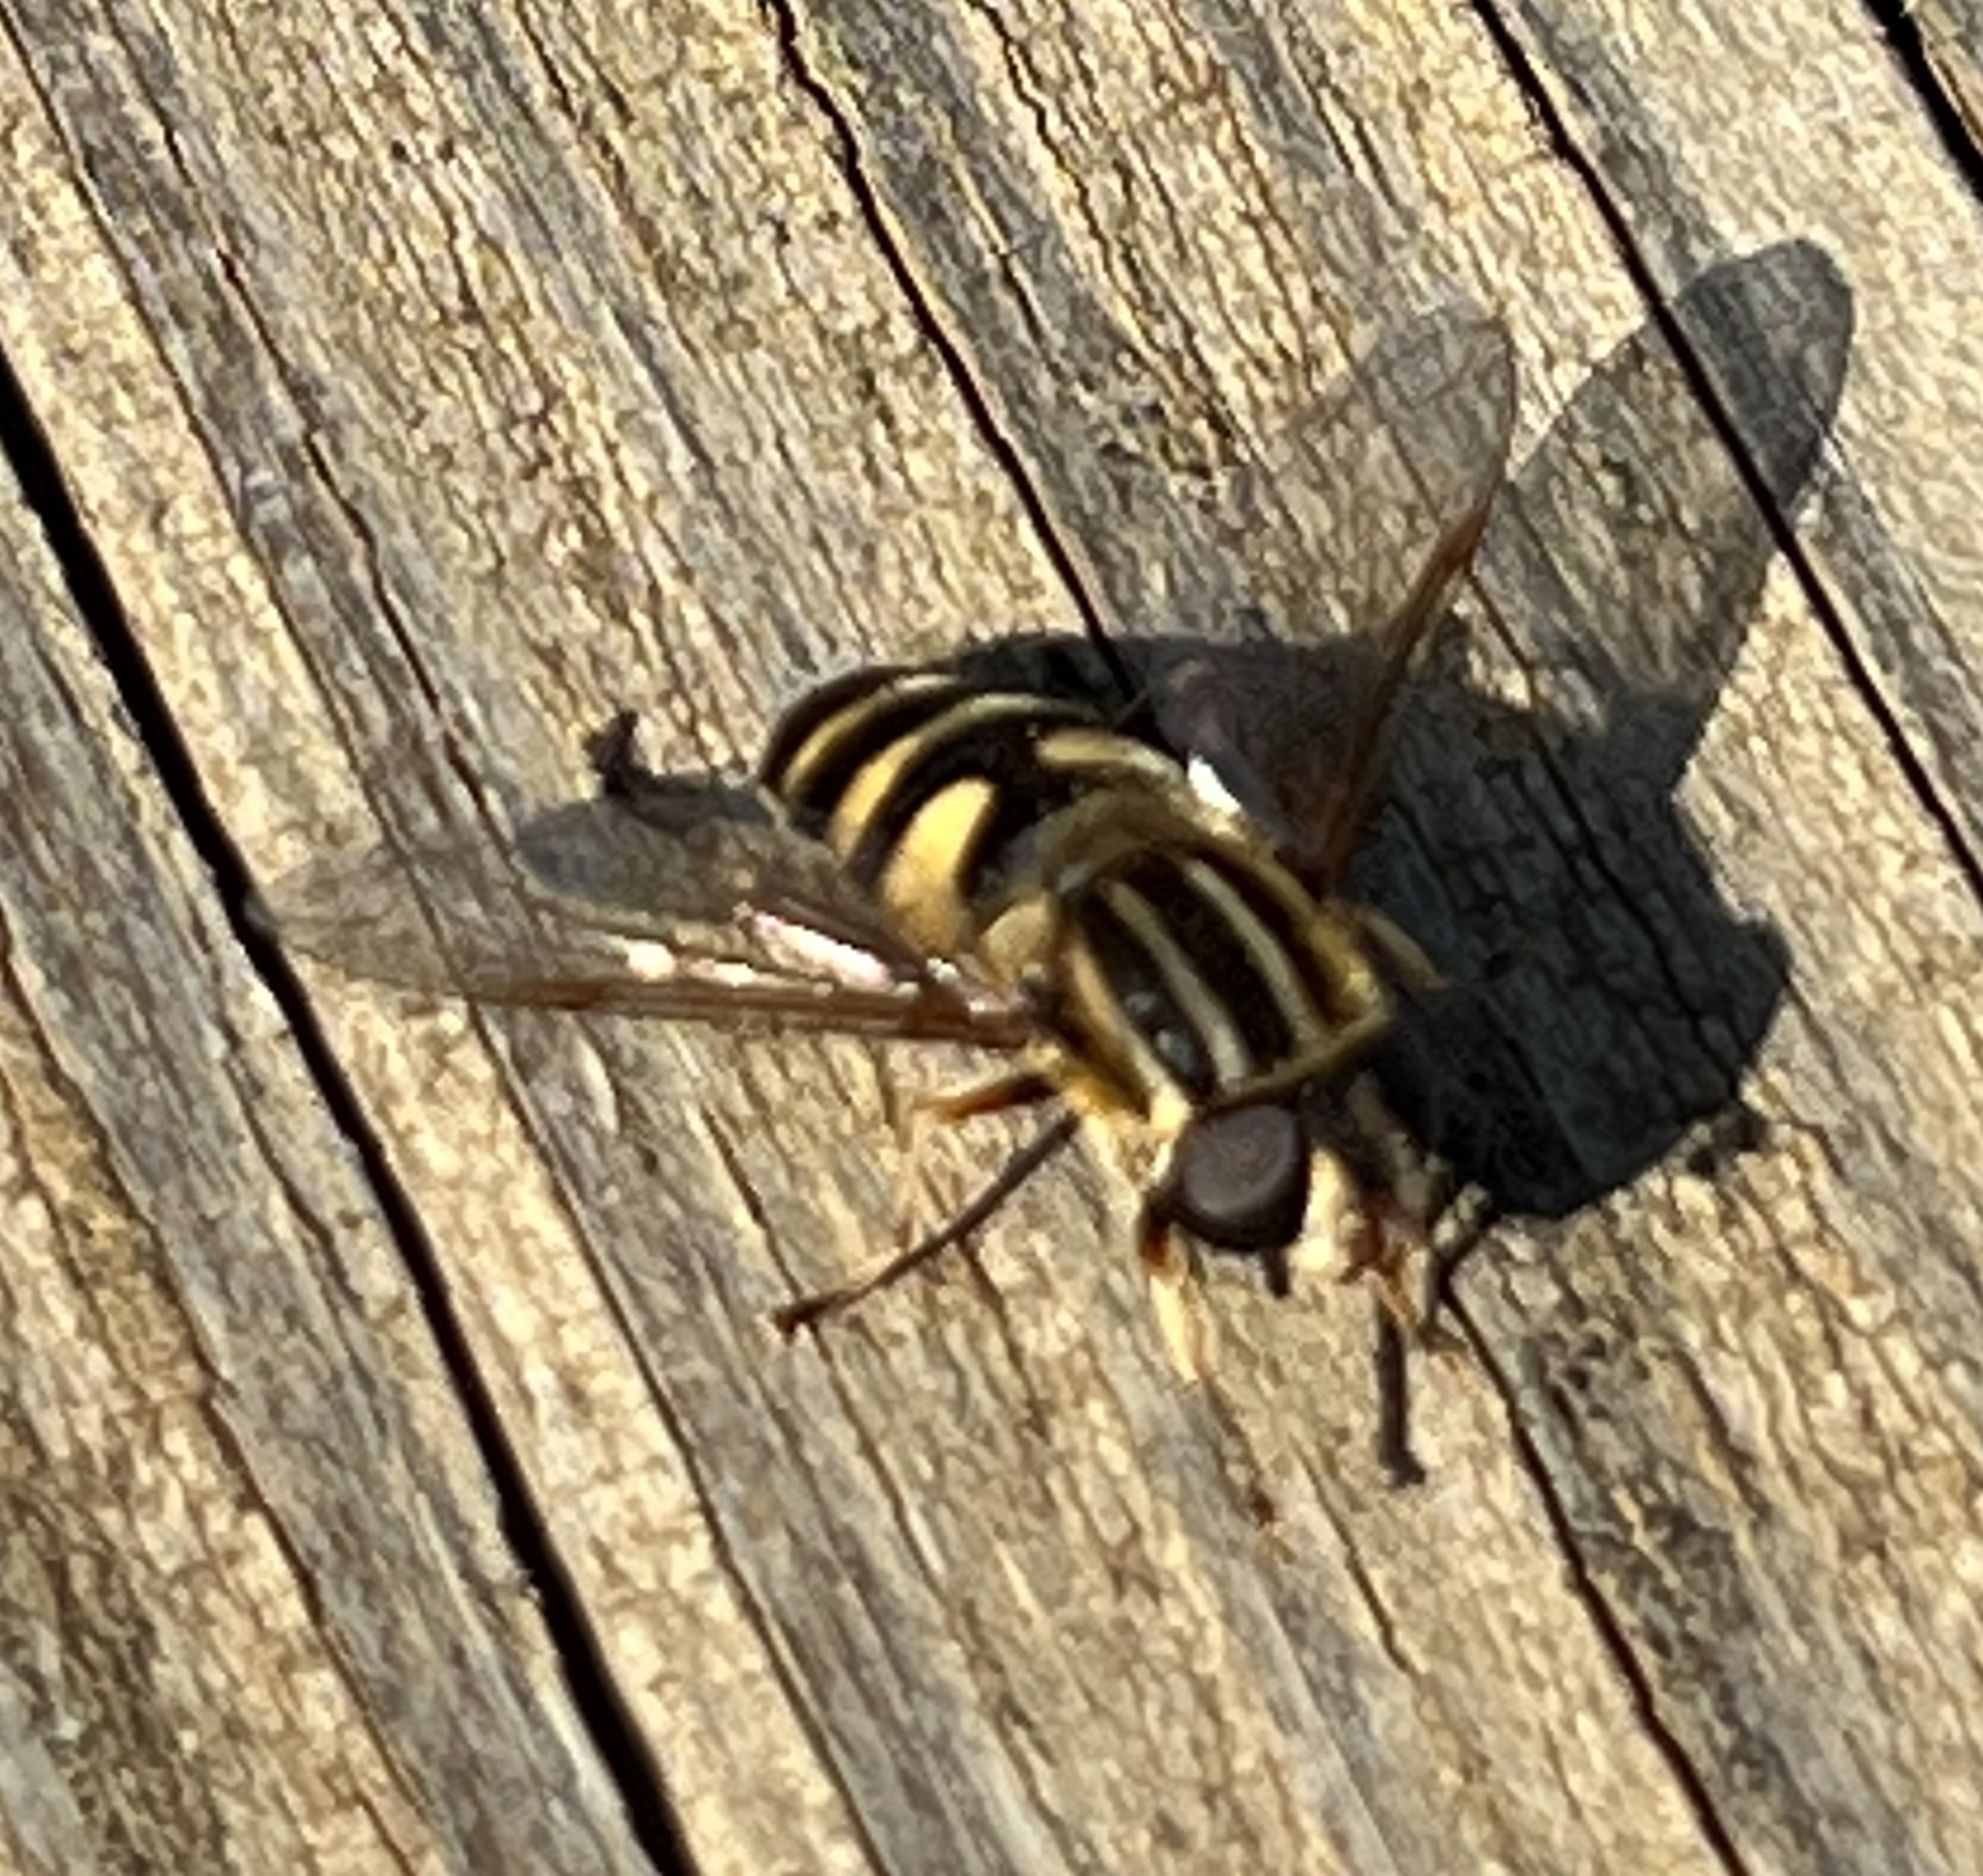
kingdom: Animalia
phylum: Arthropoda
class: Insecta
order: Diptera
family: Syrphidae
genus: Helophilus
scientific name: Helophilus fasciatus
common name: Narrow-headed marsh fly
